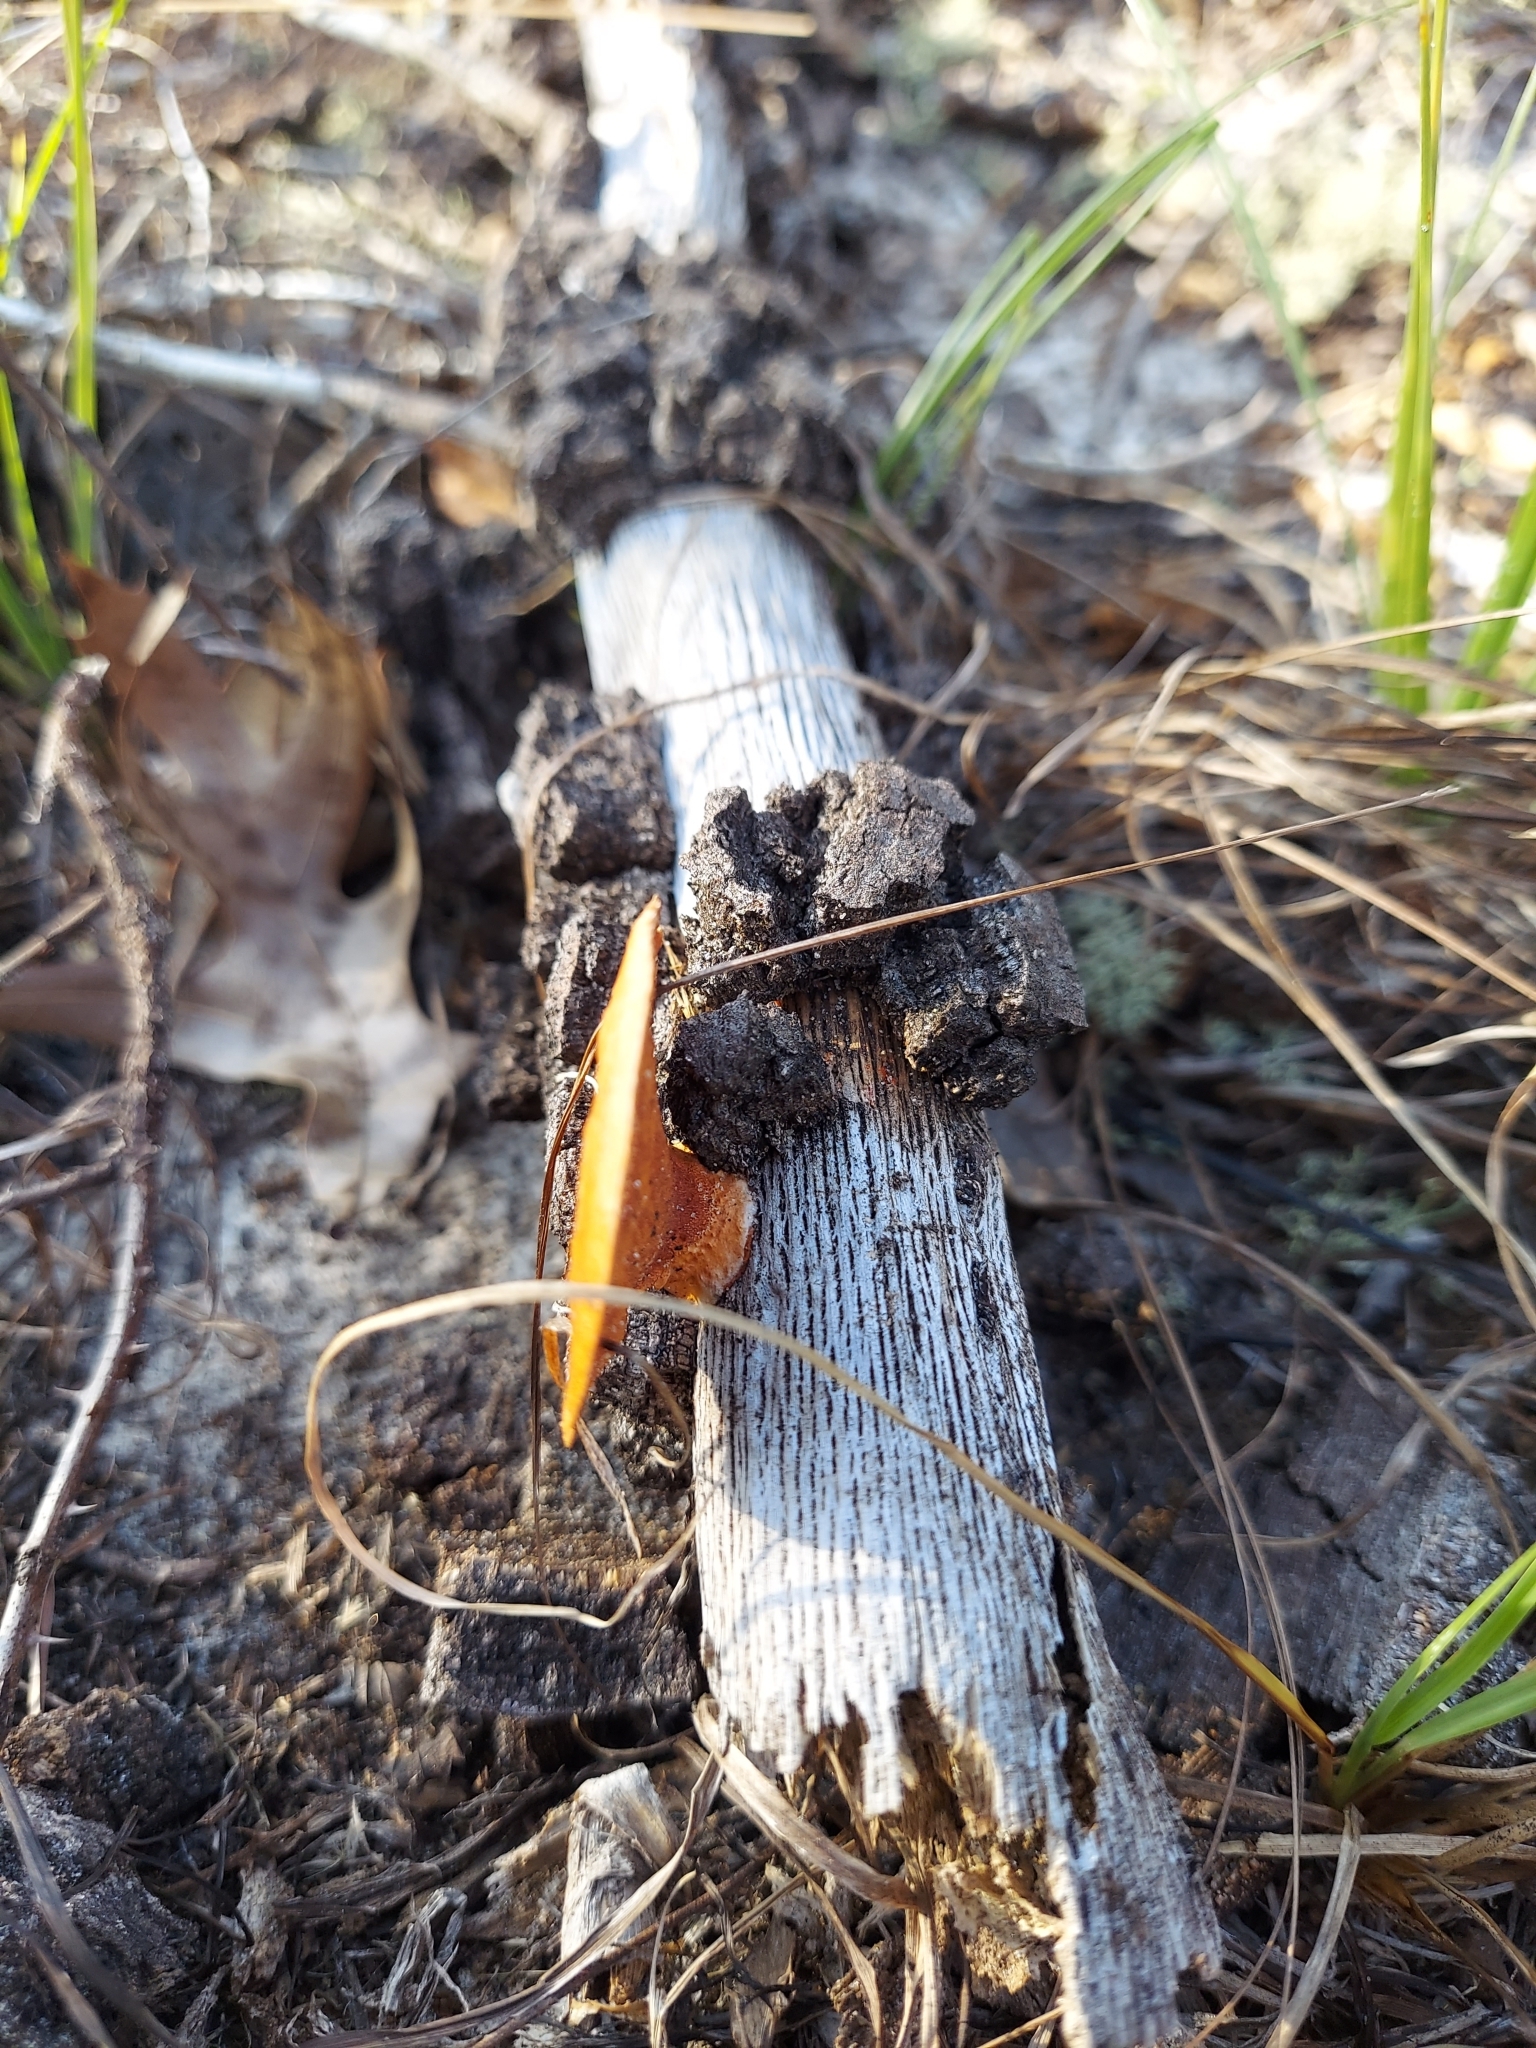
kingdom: Fungi
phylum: Basidiomycota
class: Agaricomycetes
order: Polyporales
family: Polyporaceae
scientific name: Polyporaceae
